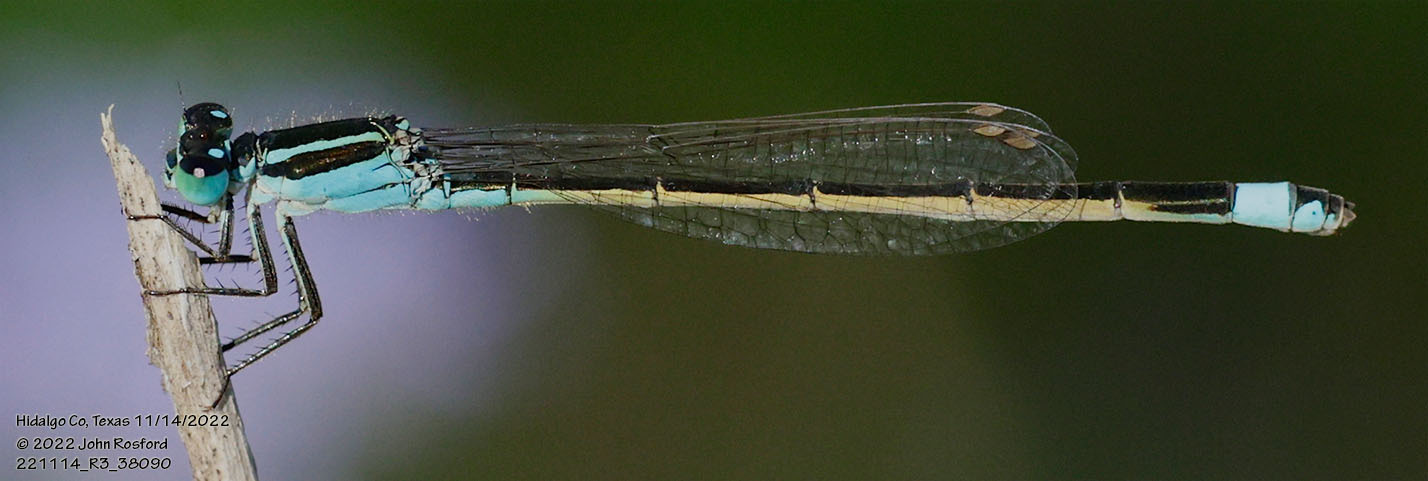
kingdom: Animalia
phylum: Arthropoda
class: Insecta
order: Odonata
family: Coenagrionidae
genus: Ischnura
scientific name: Ischnura ramburii
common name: Rambur's forktail
